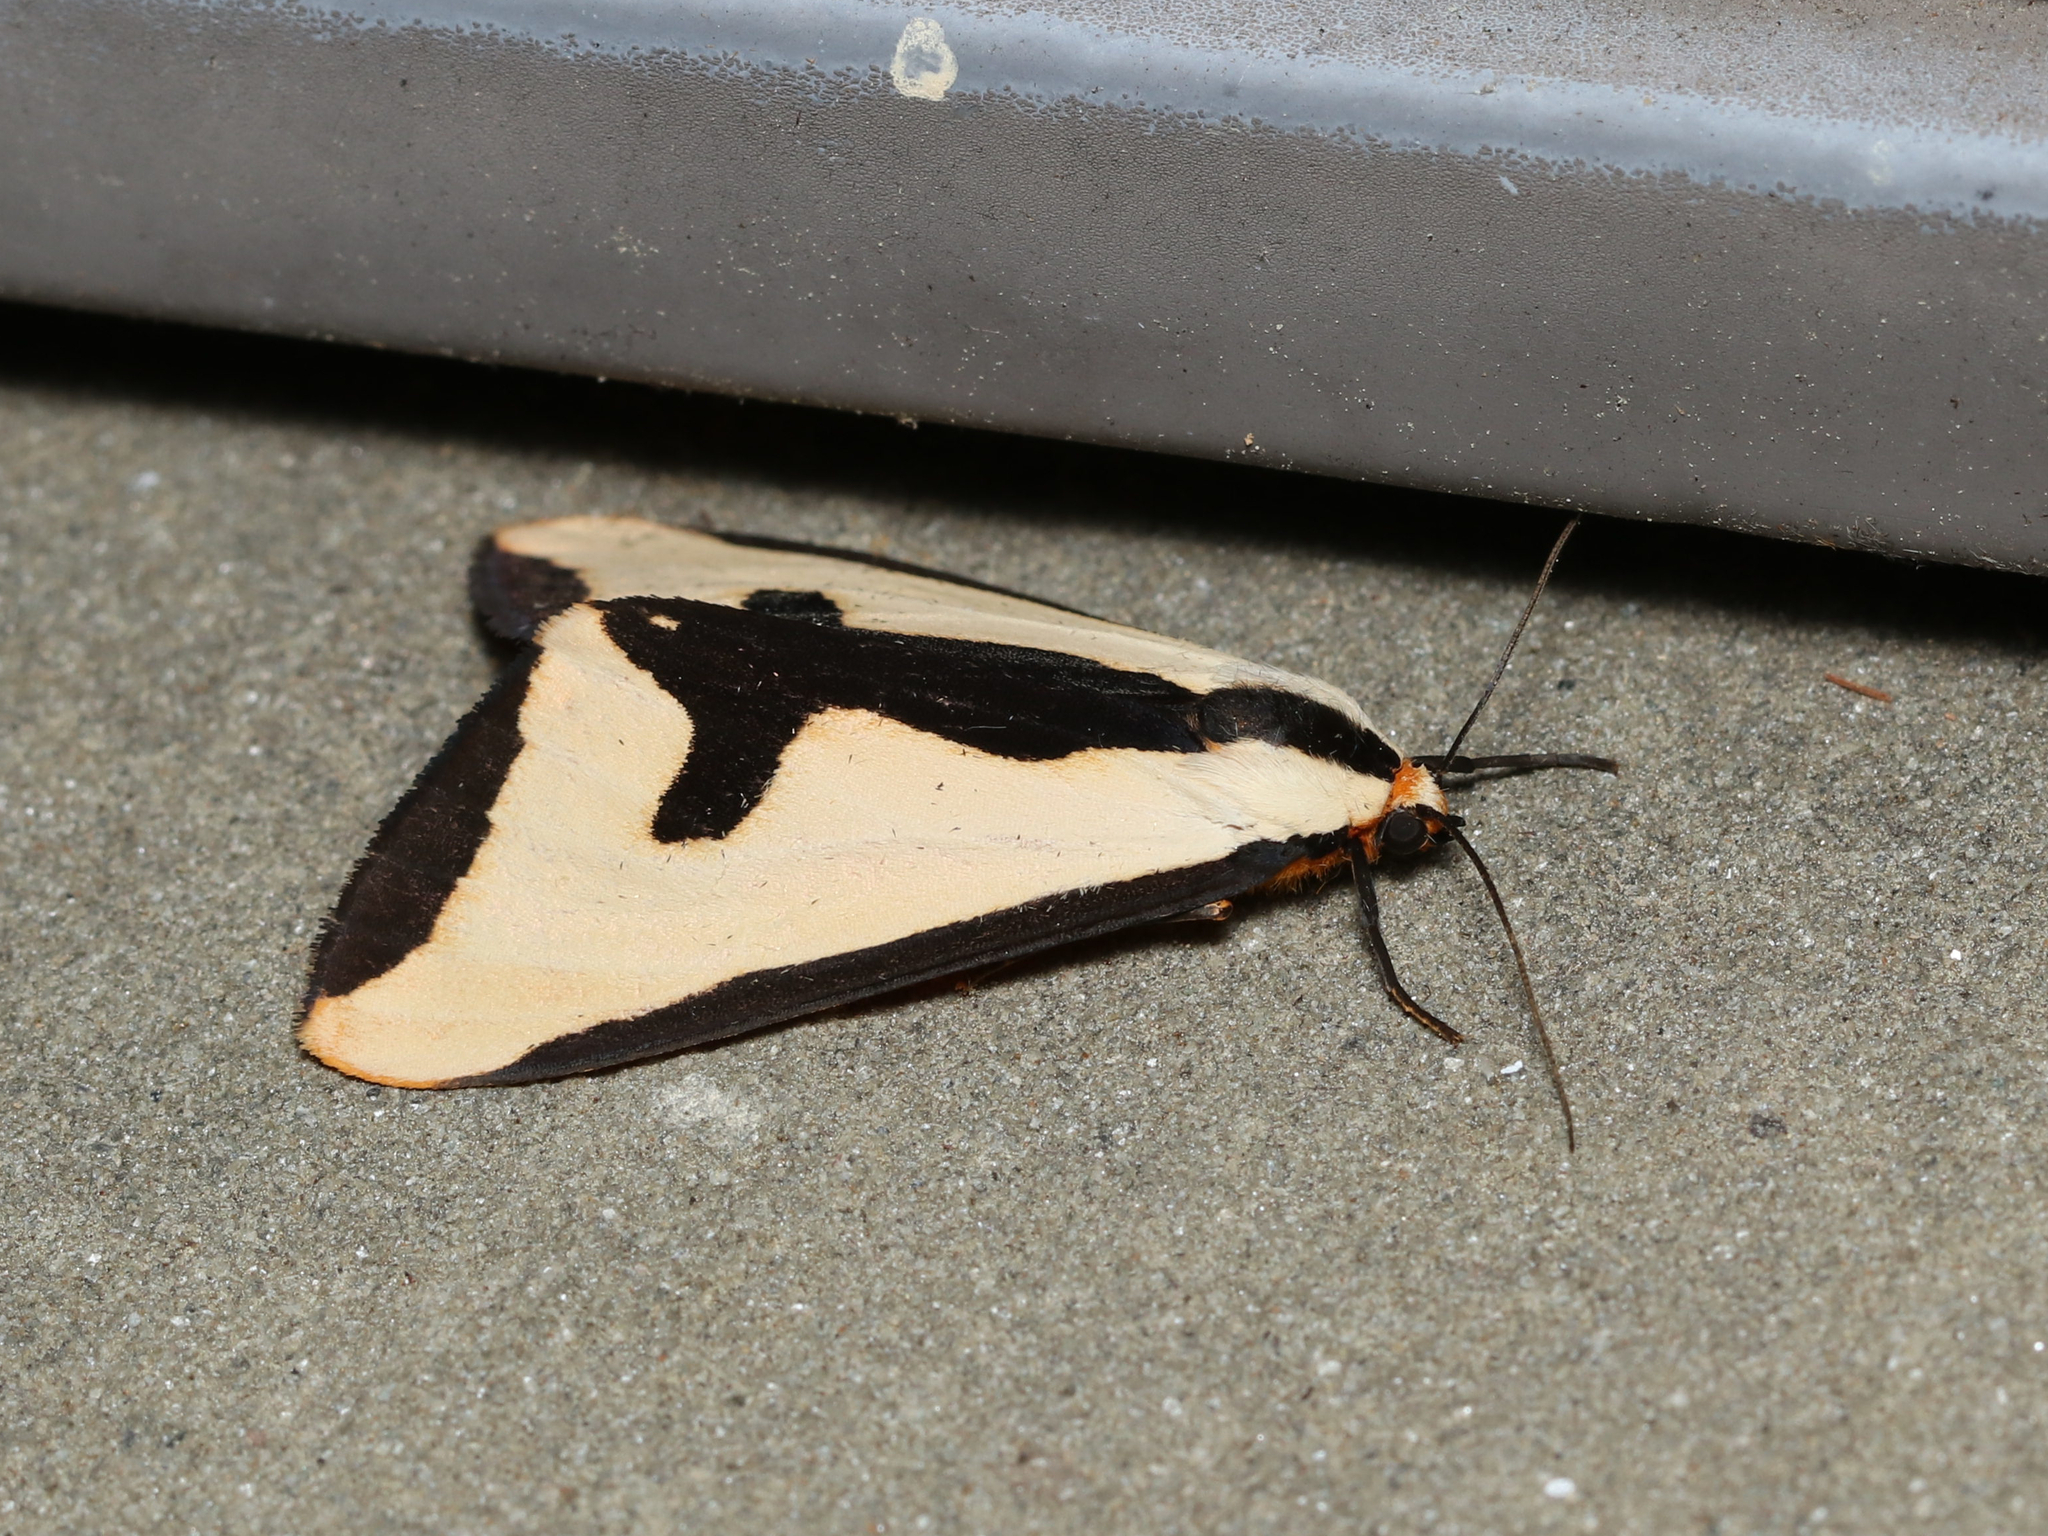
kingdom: Animalia
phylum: Arthropoda
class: Insecta
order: Lepidoptera
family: Erebidae
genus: Haploa
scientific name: Haploa clymene
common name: Clymene moth
